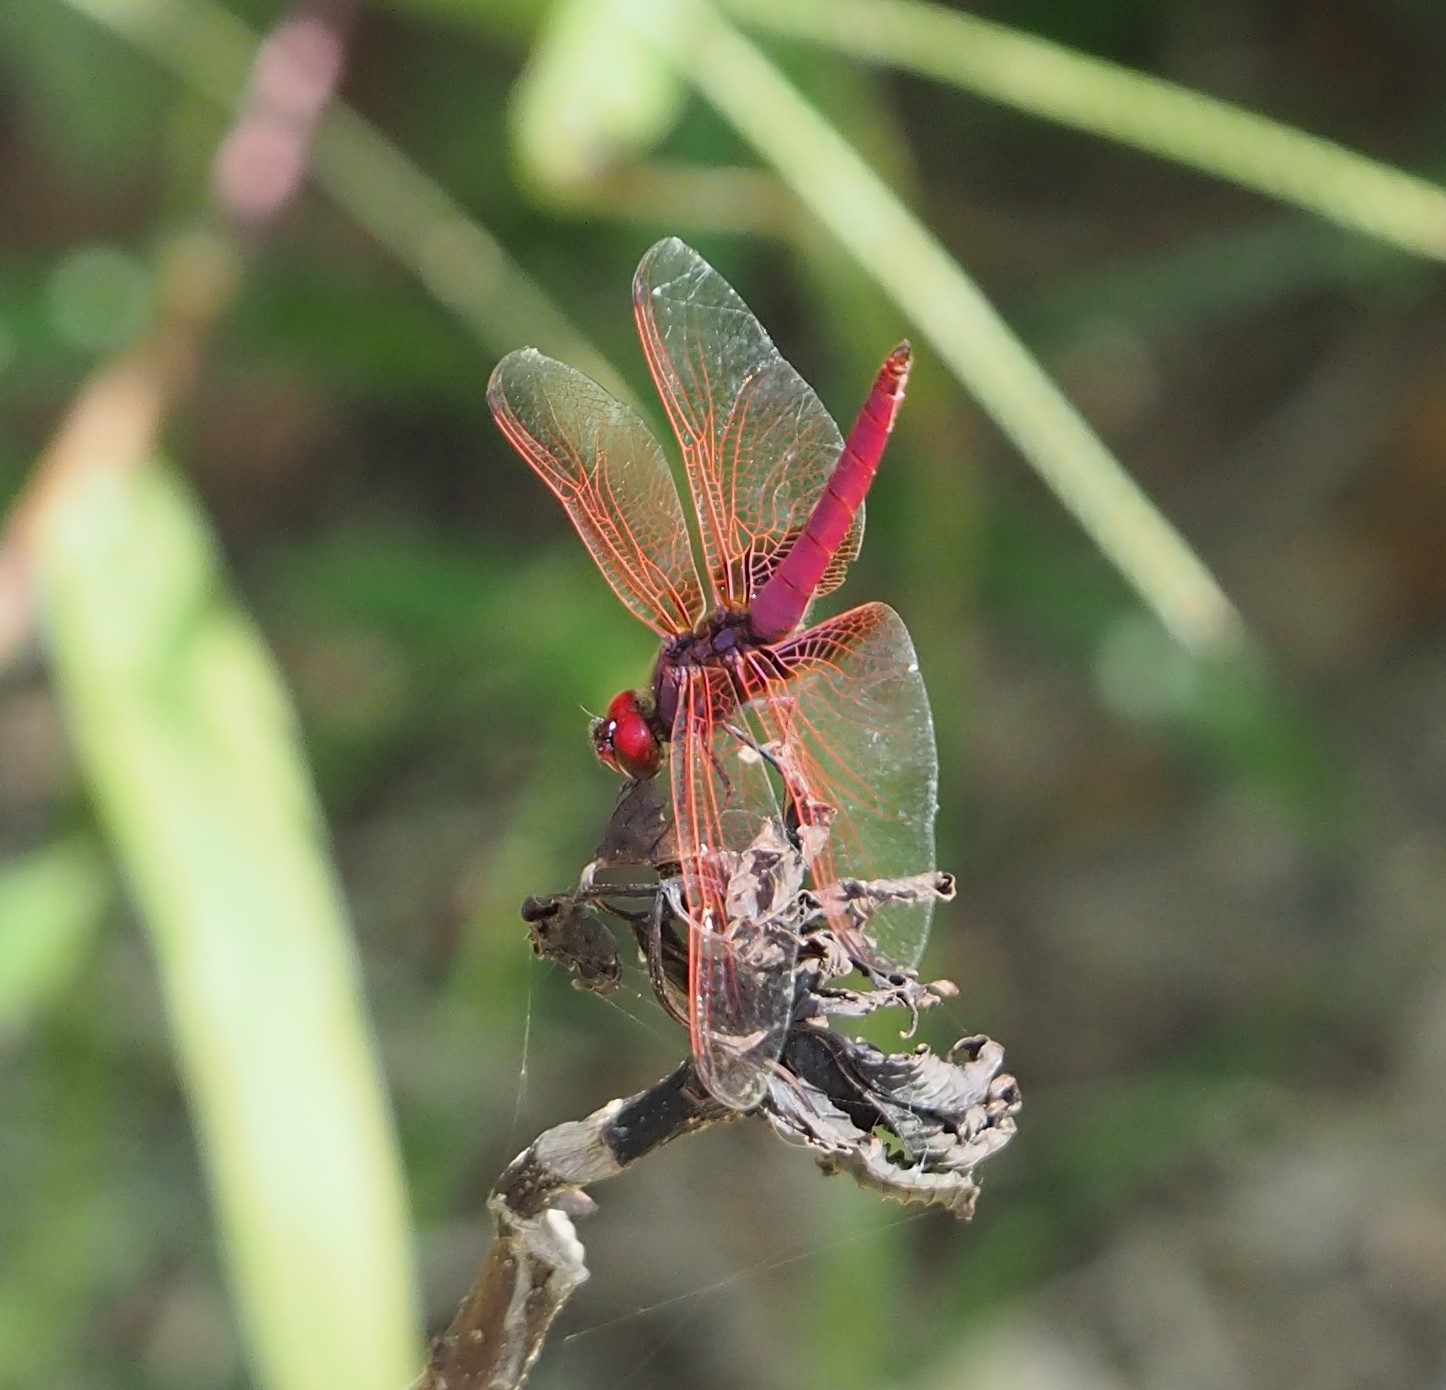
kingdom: Animalia
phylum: Arthropoda
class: Insecta
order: Odonata
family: Libellulidae
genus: Trithemis
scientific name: Trithemis aurora
